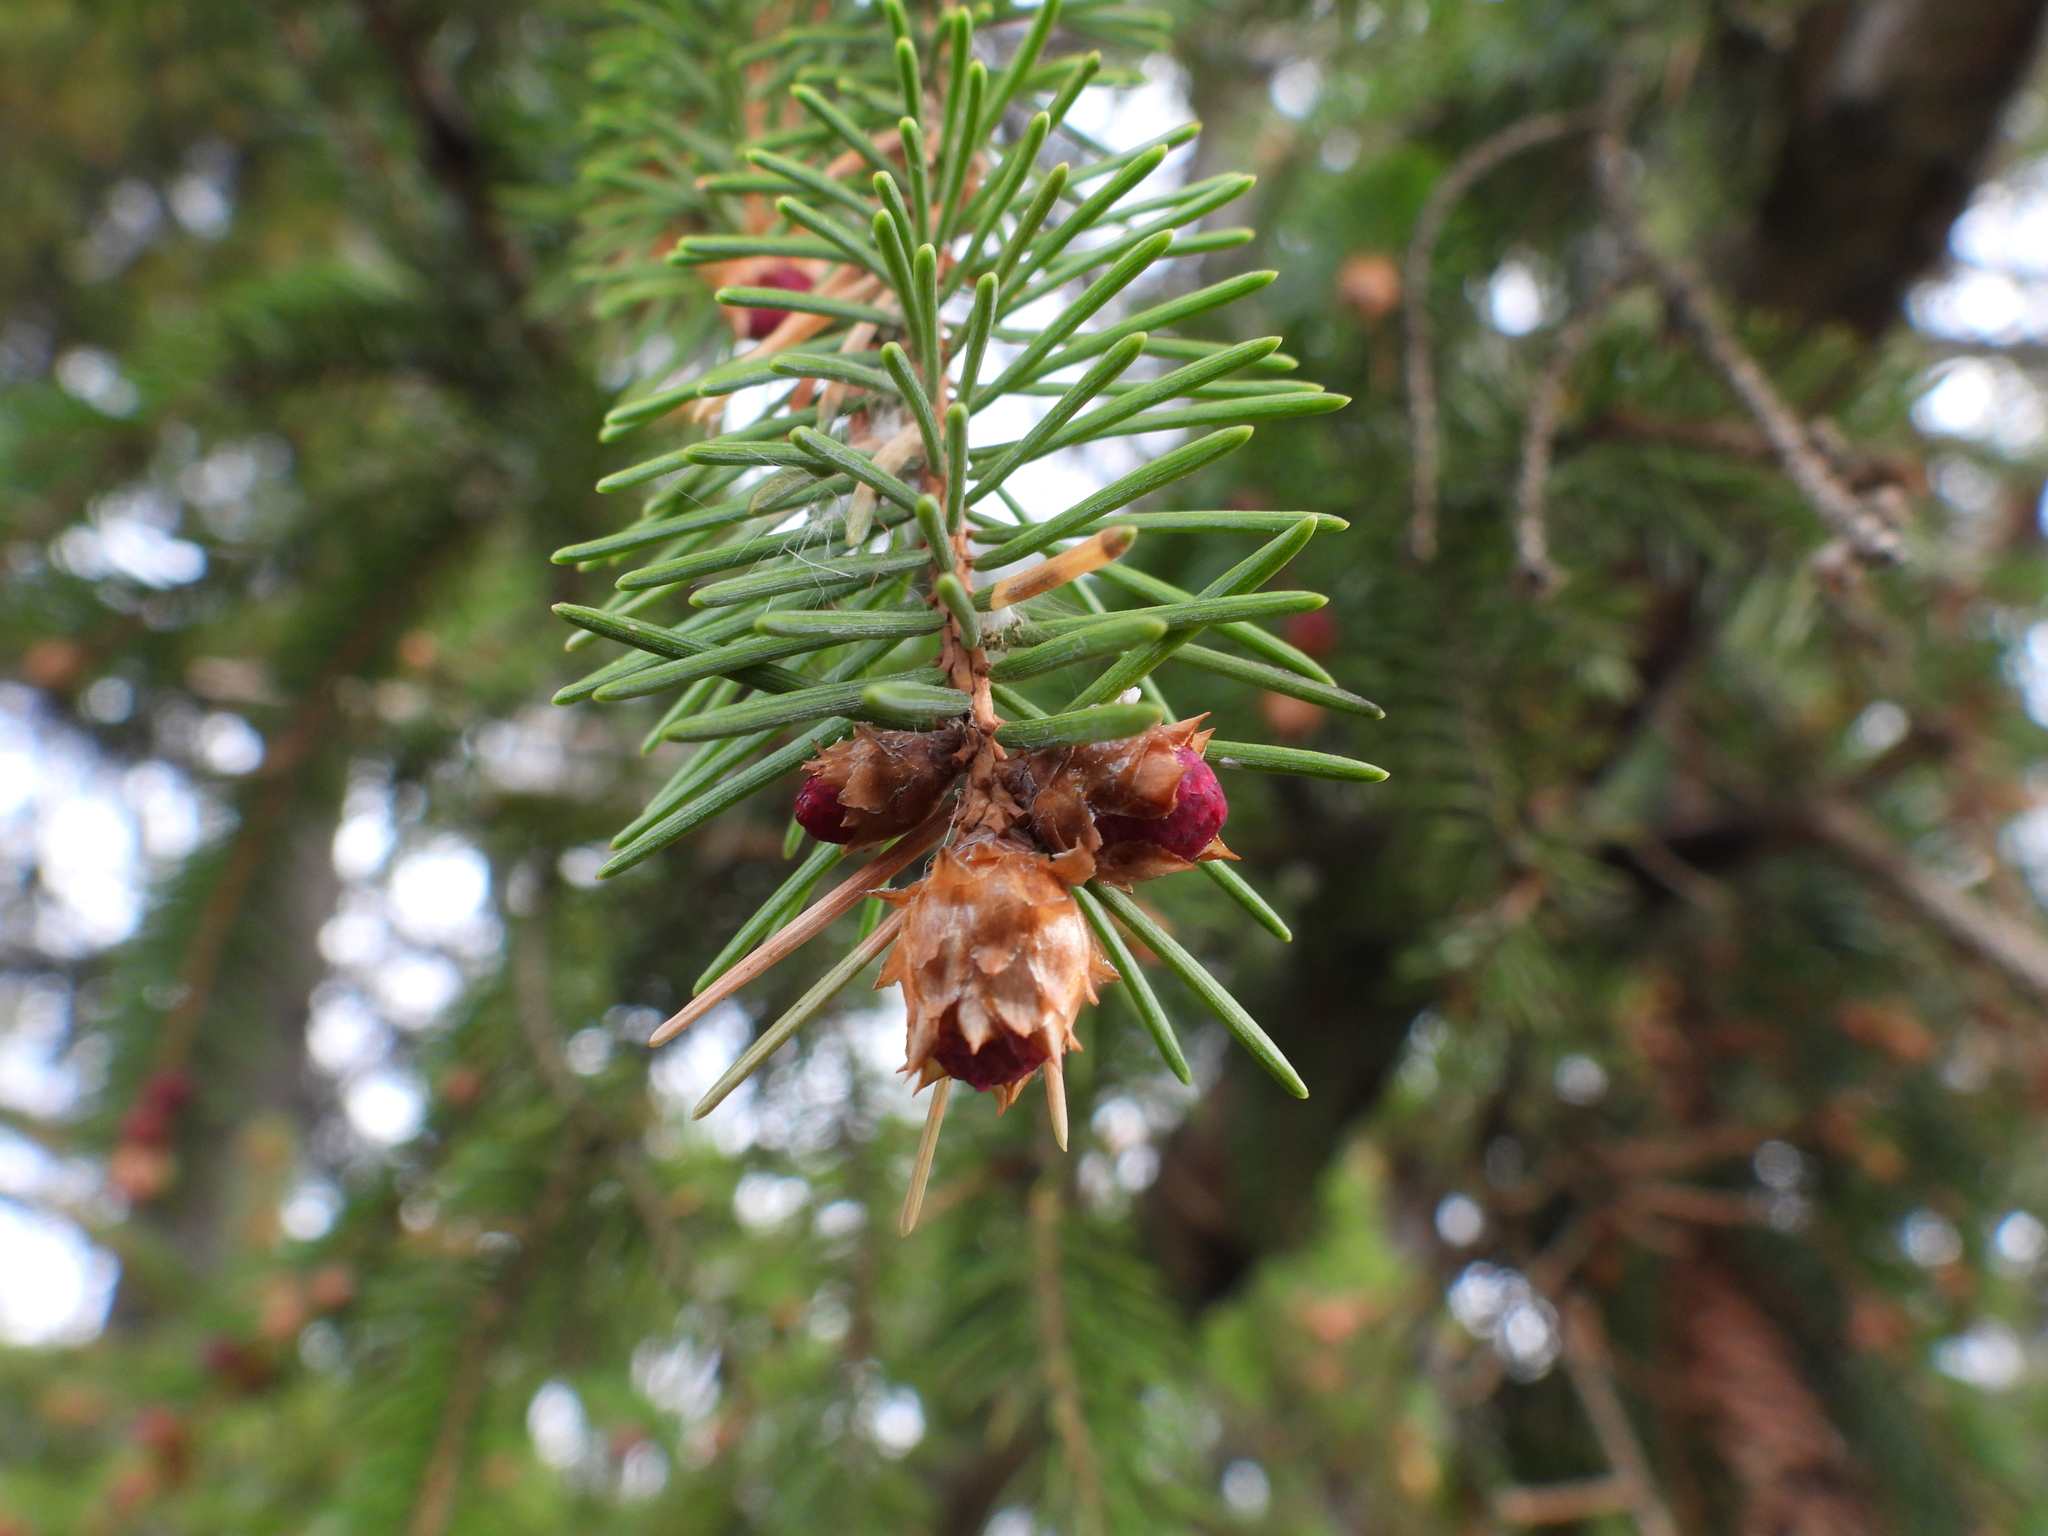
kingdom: Plantae
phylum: Tracheophyta
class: Pinopsida
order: Pinales
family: Pinaceae
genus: Picea
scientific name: Picea abies
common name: Norway spruce
